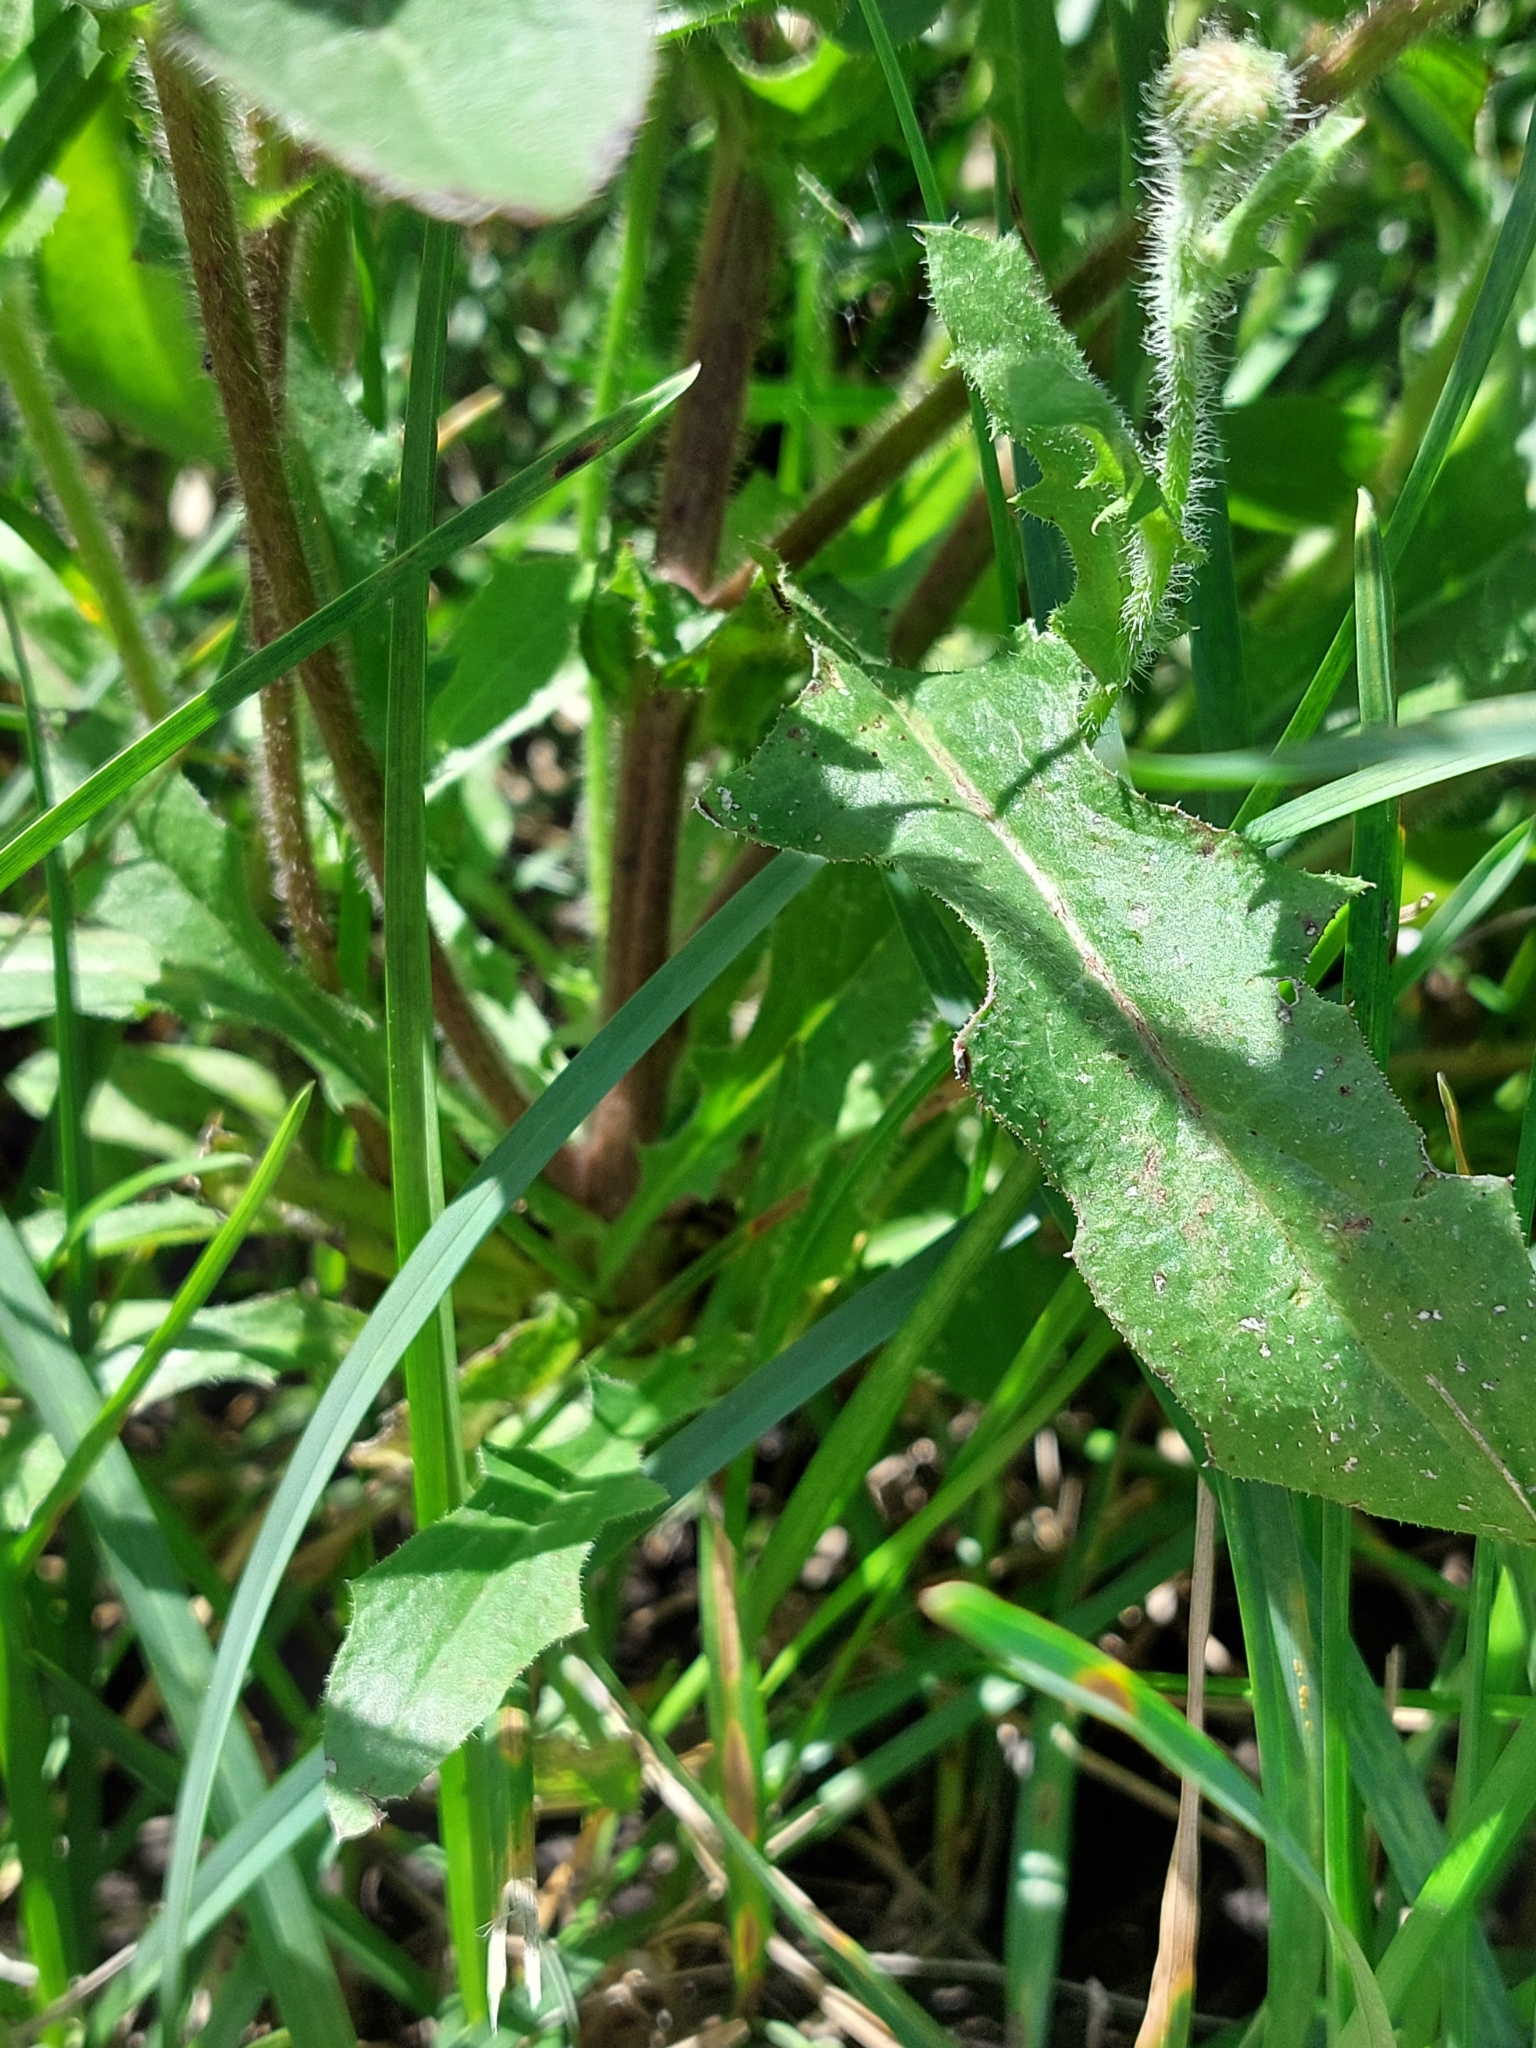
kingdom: Plantae
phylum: Tracheophyta
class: Magnoliopsida
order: Asterales
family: Asteraceae
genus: Crepis
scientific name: Crepis foetida
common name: Stinking hawk's-beard
